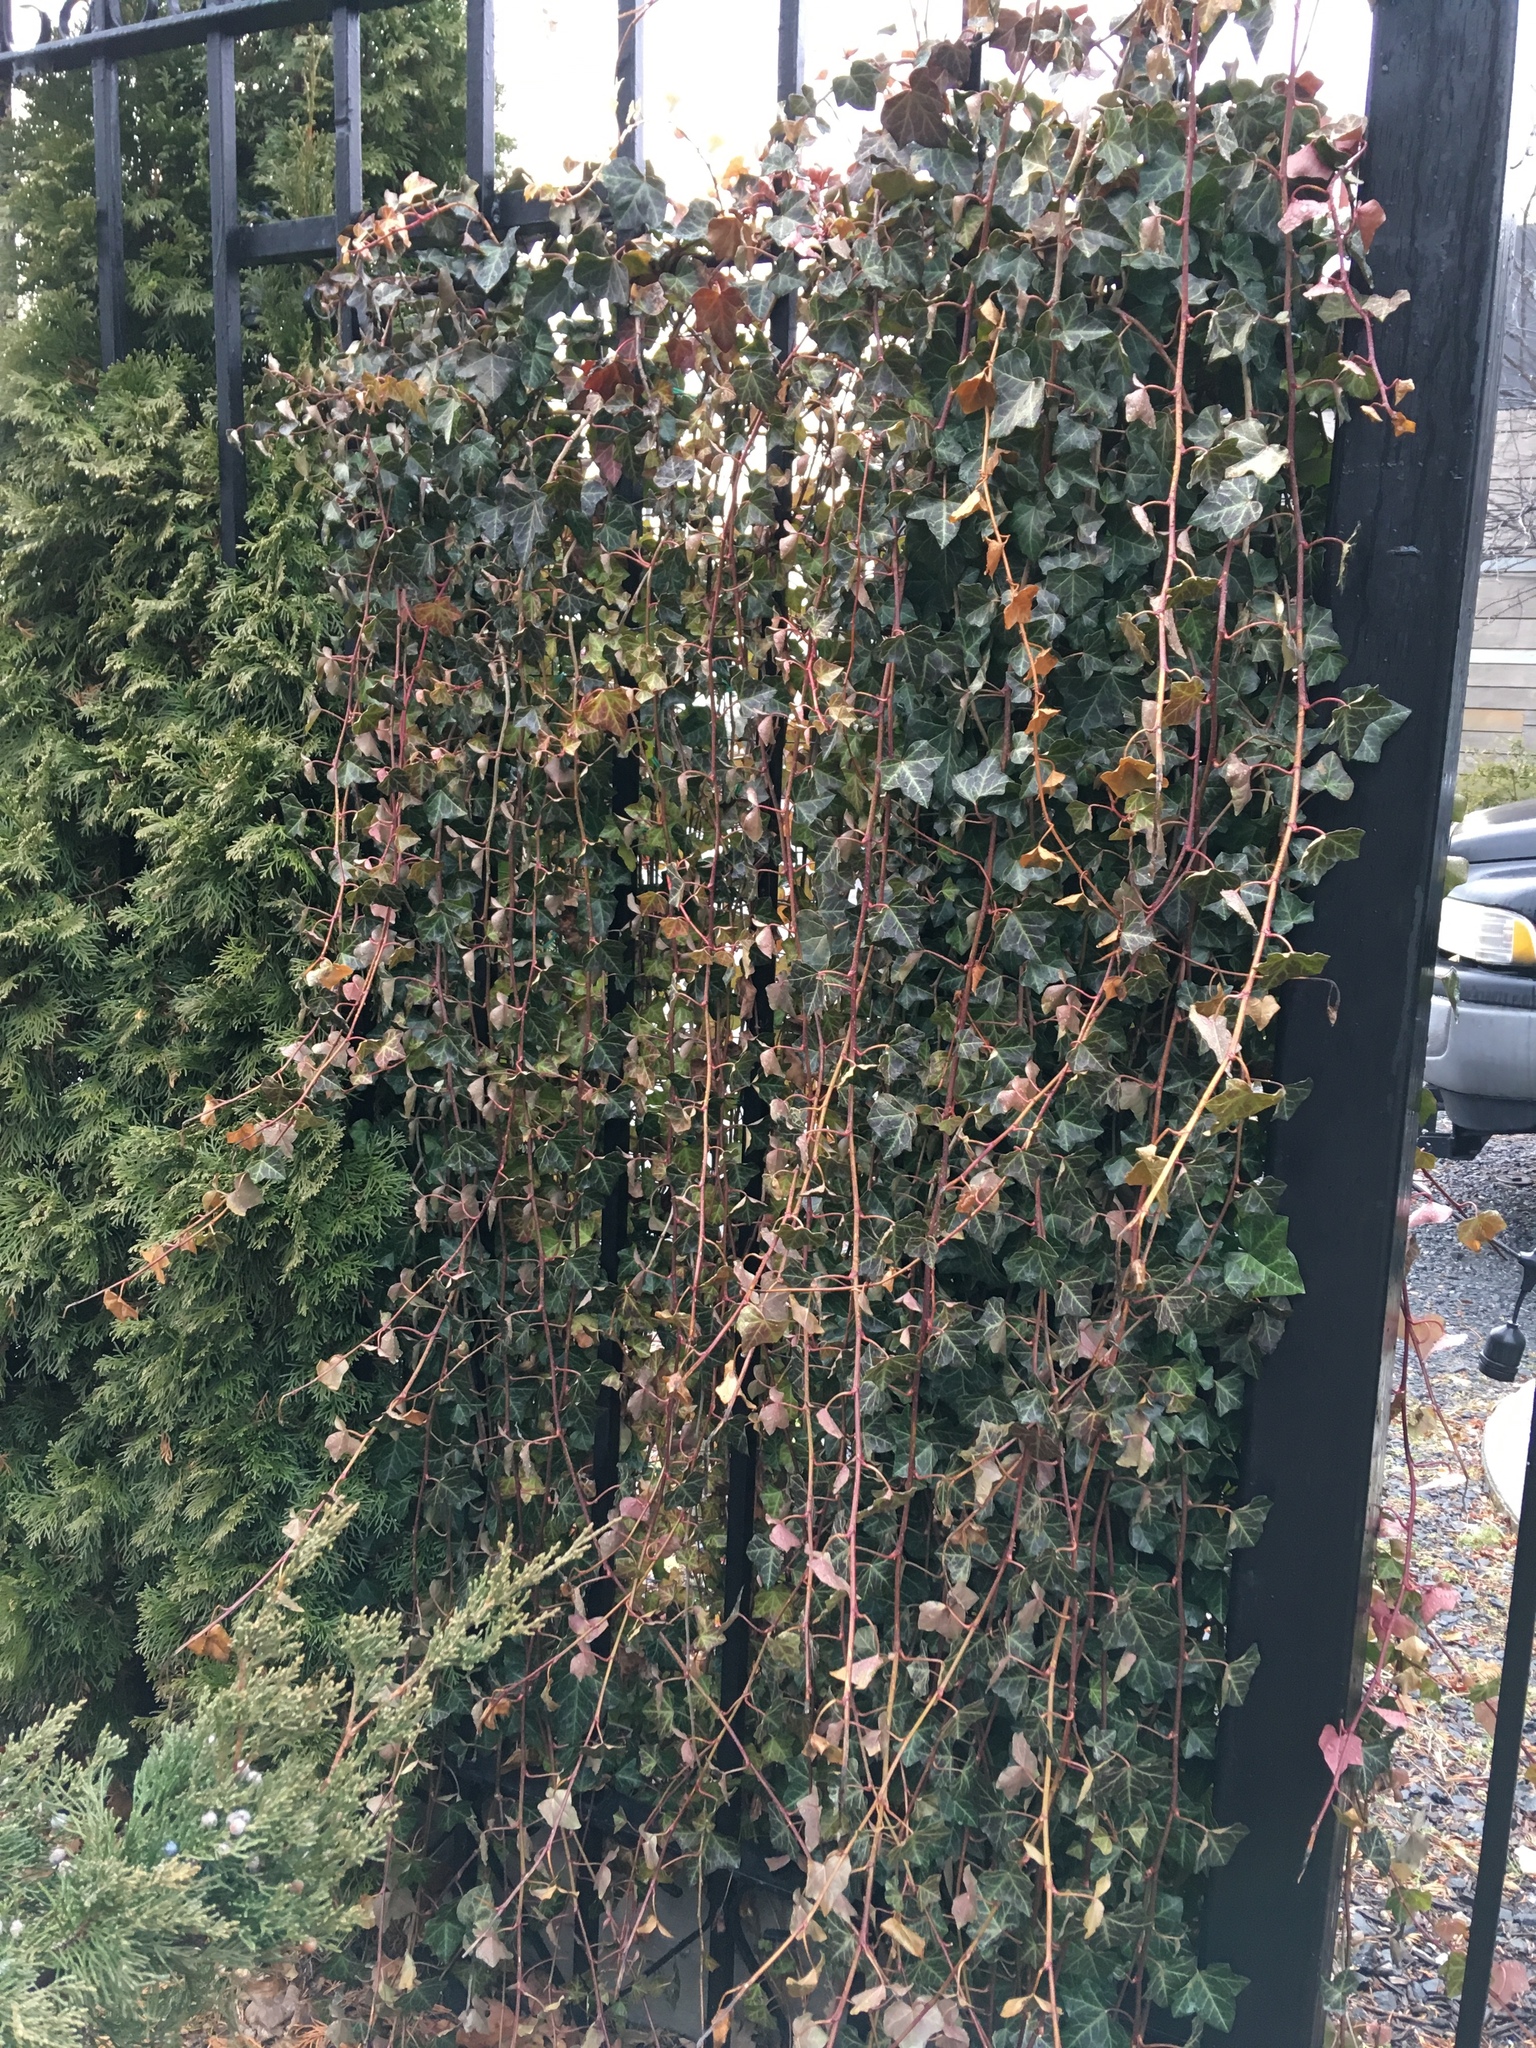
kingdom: Plantae
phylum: Tracheophyta
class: Magnoliopsida
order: Apiales
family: Araliaceae
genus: Hedera
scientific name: Hedera helix
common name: Ivy
